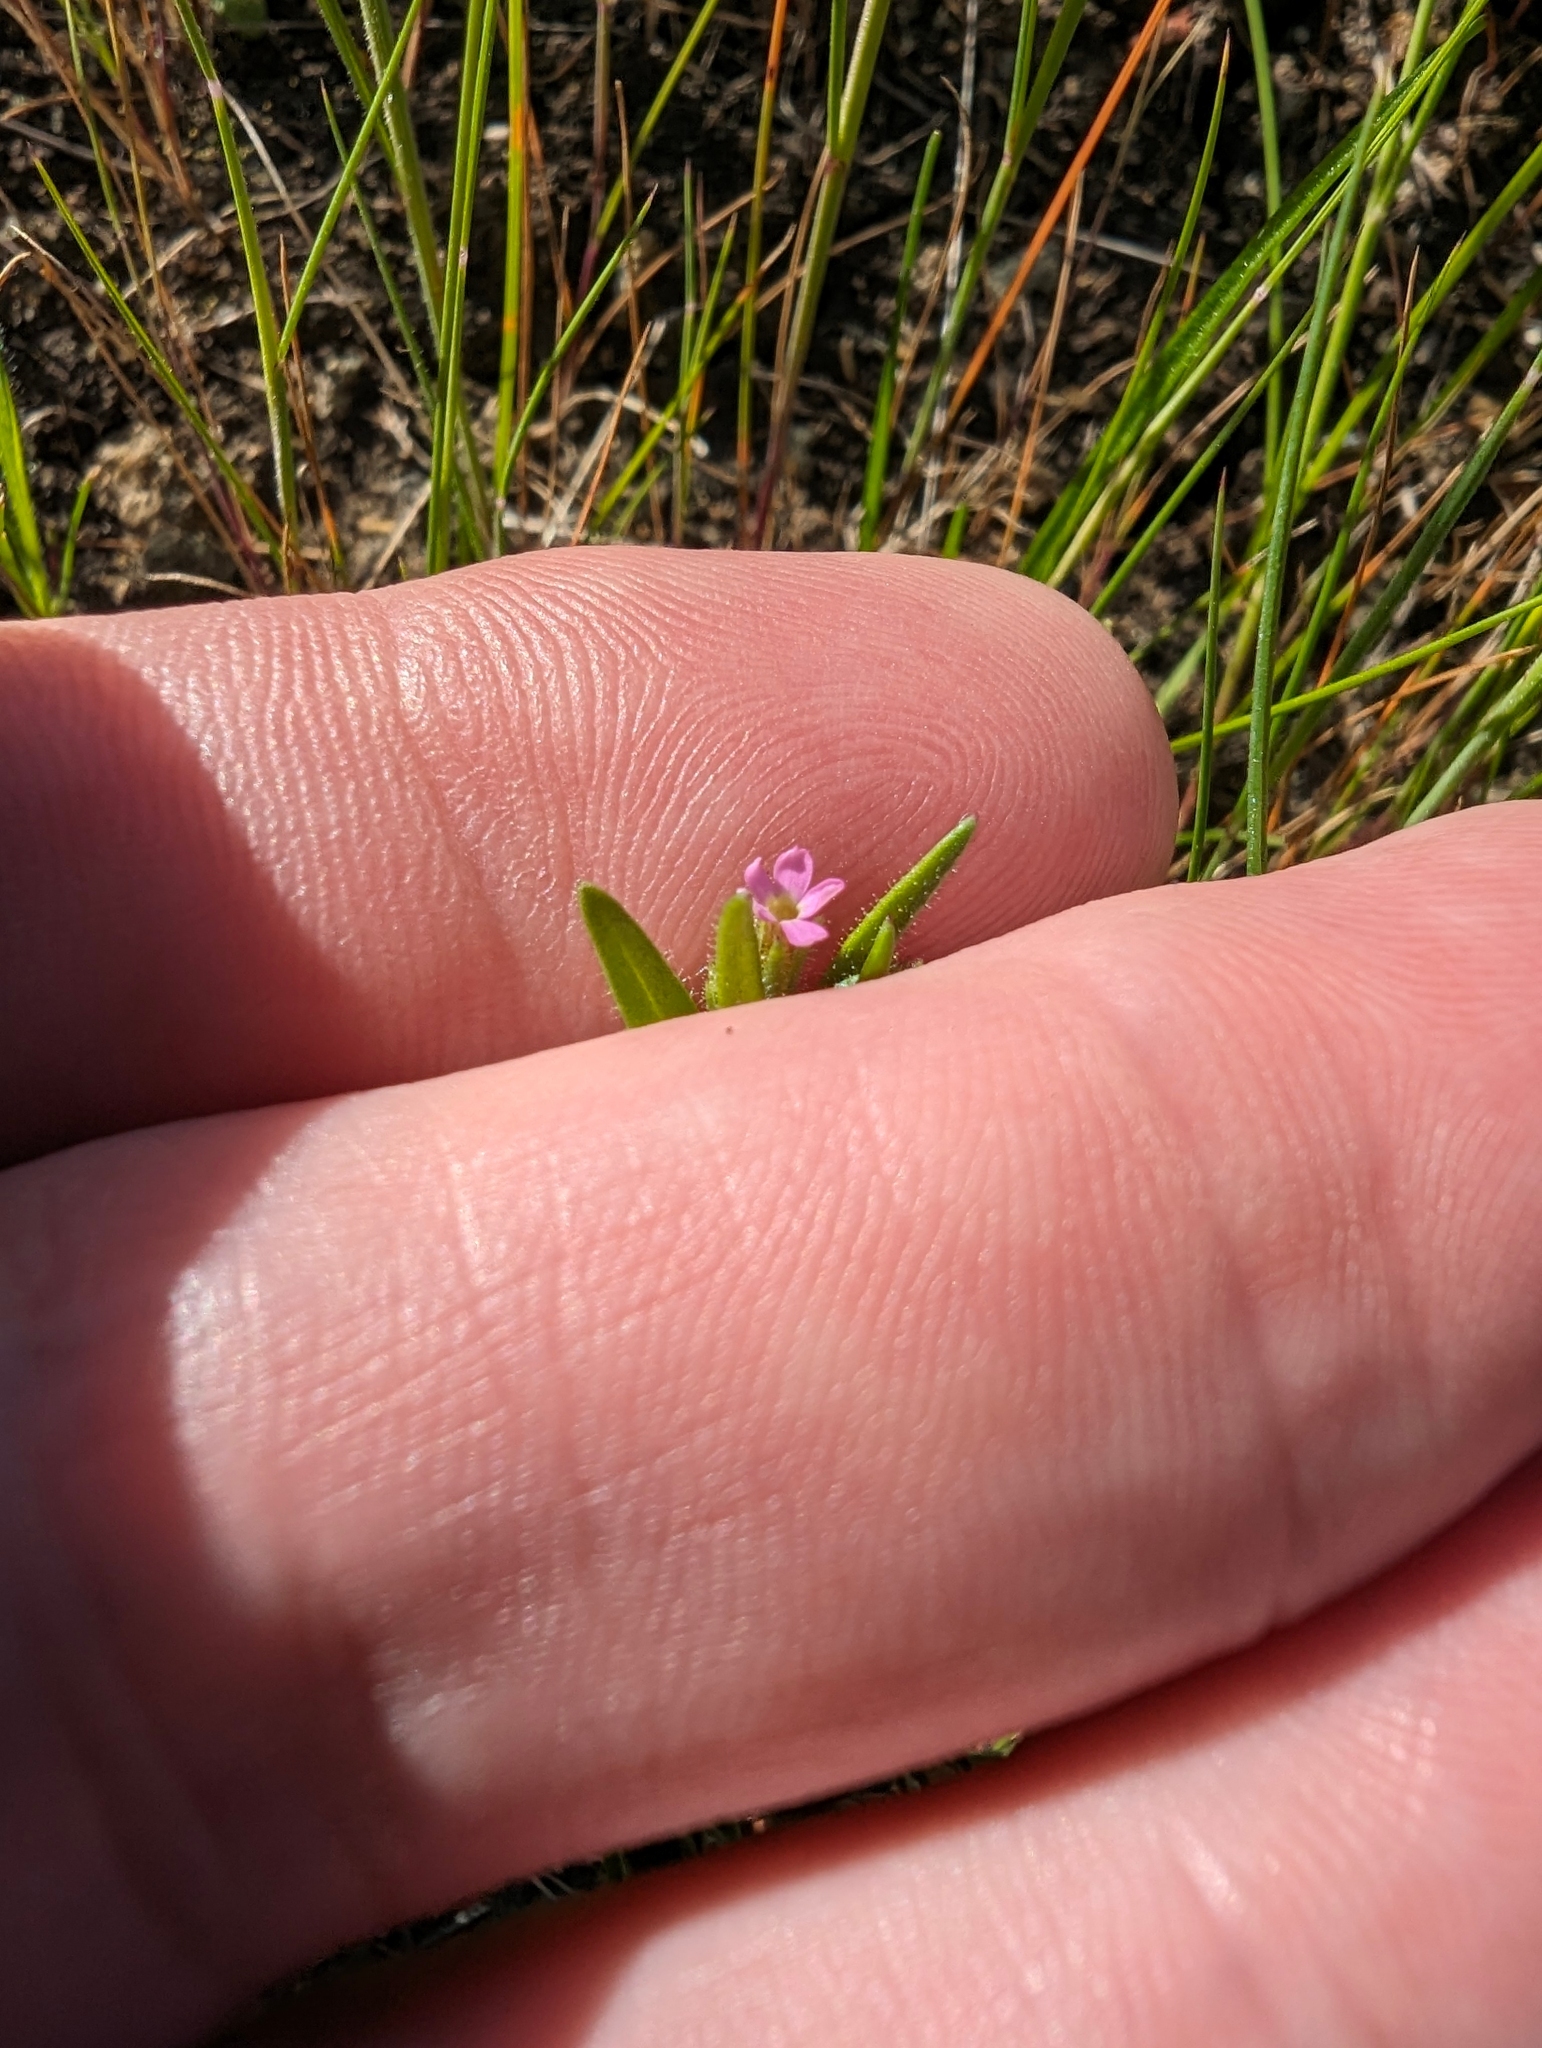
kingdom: Plantae
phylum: Tracheophyta
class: Magnoliopsida
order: Ericales
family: Polemoniaceae
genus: Phlox
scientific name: Phlox gracilis
